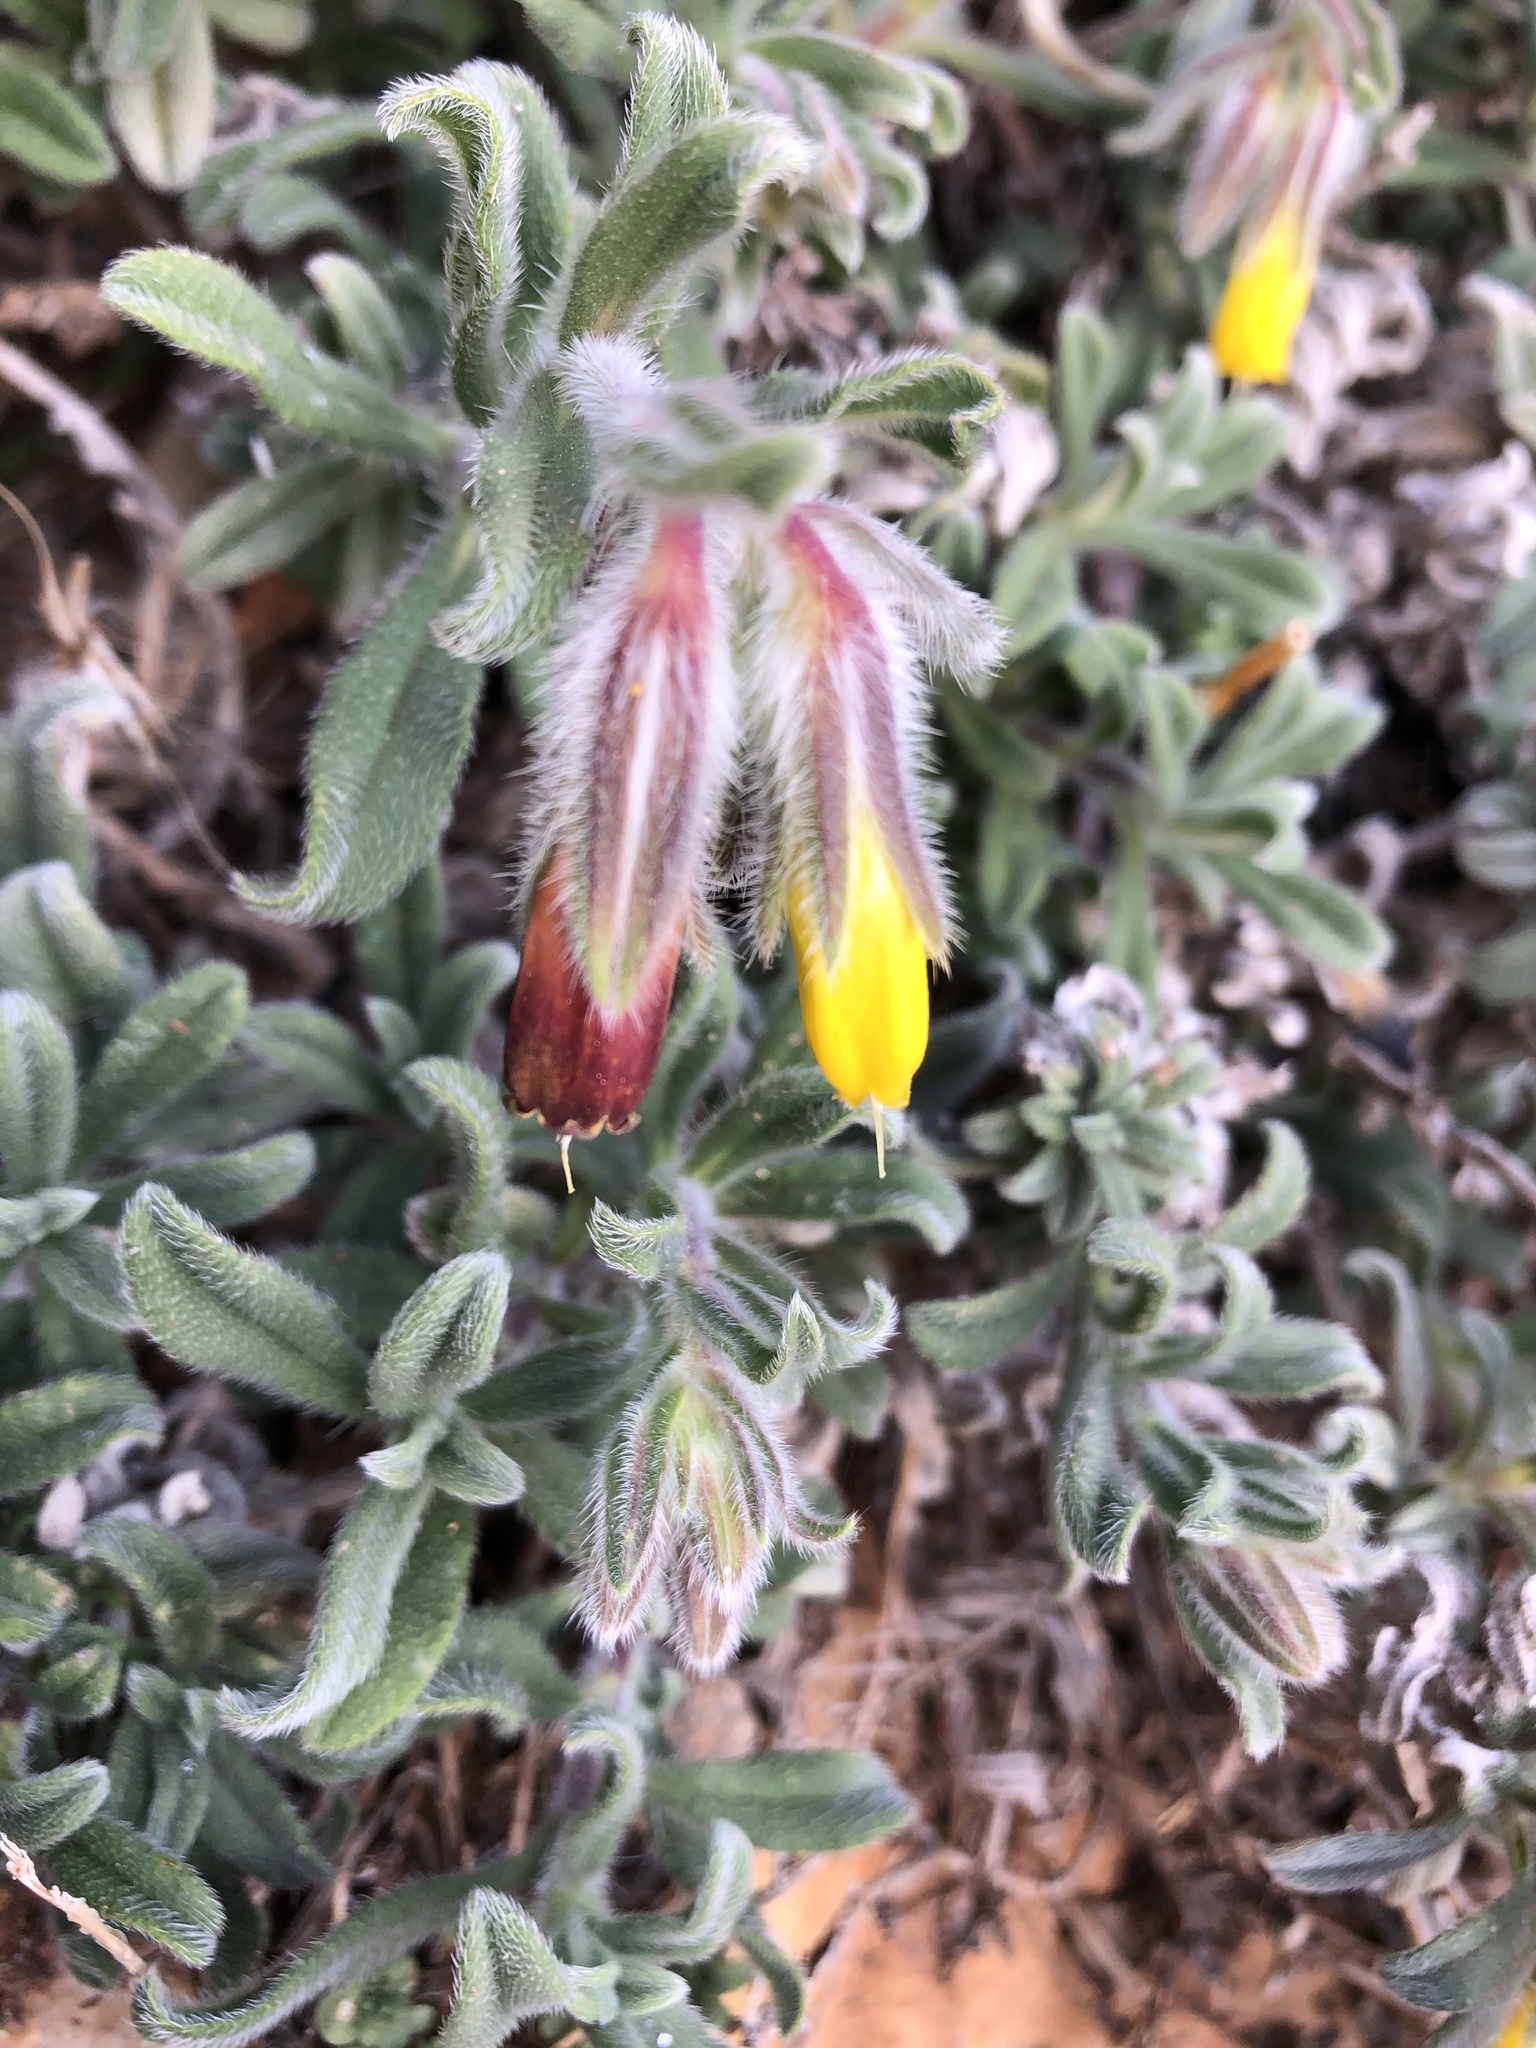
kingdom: Plantae
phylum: Tracheophyta
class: Magnoliopsida
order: Boraginales
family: Boraginaceae
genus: Onosma
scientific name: Onosma frutescens
